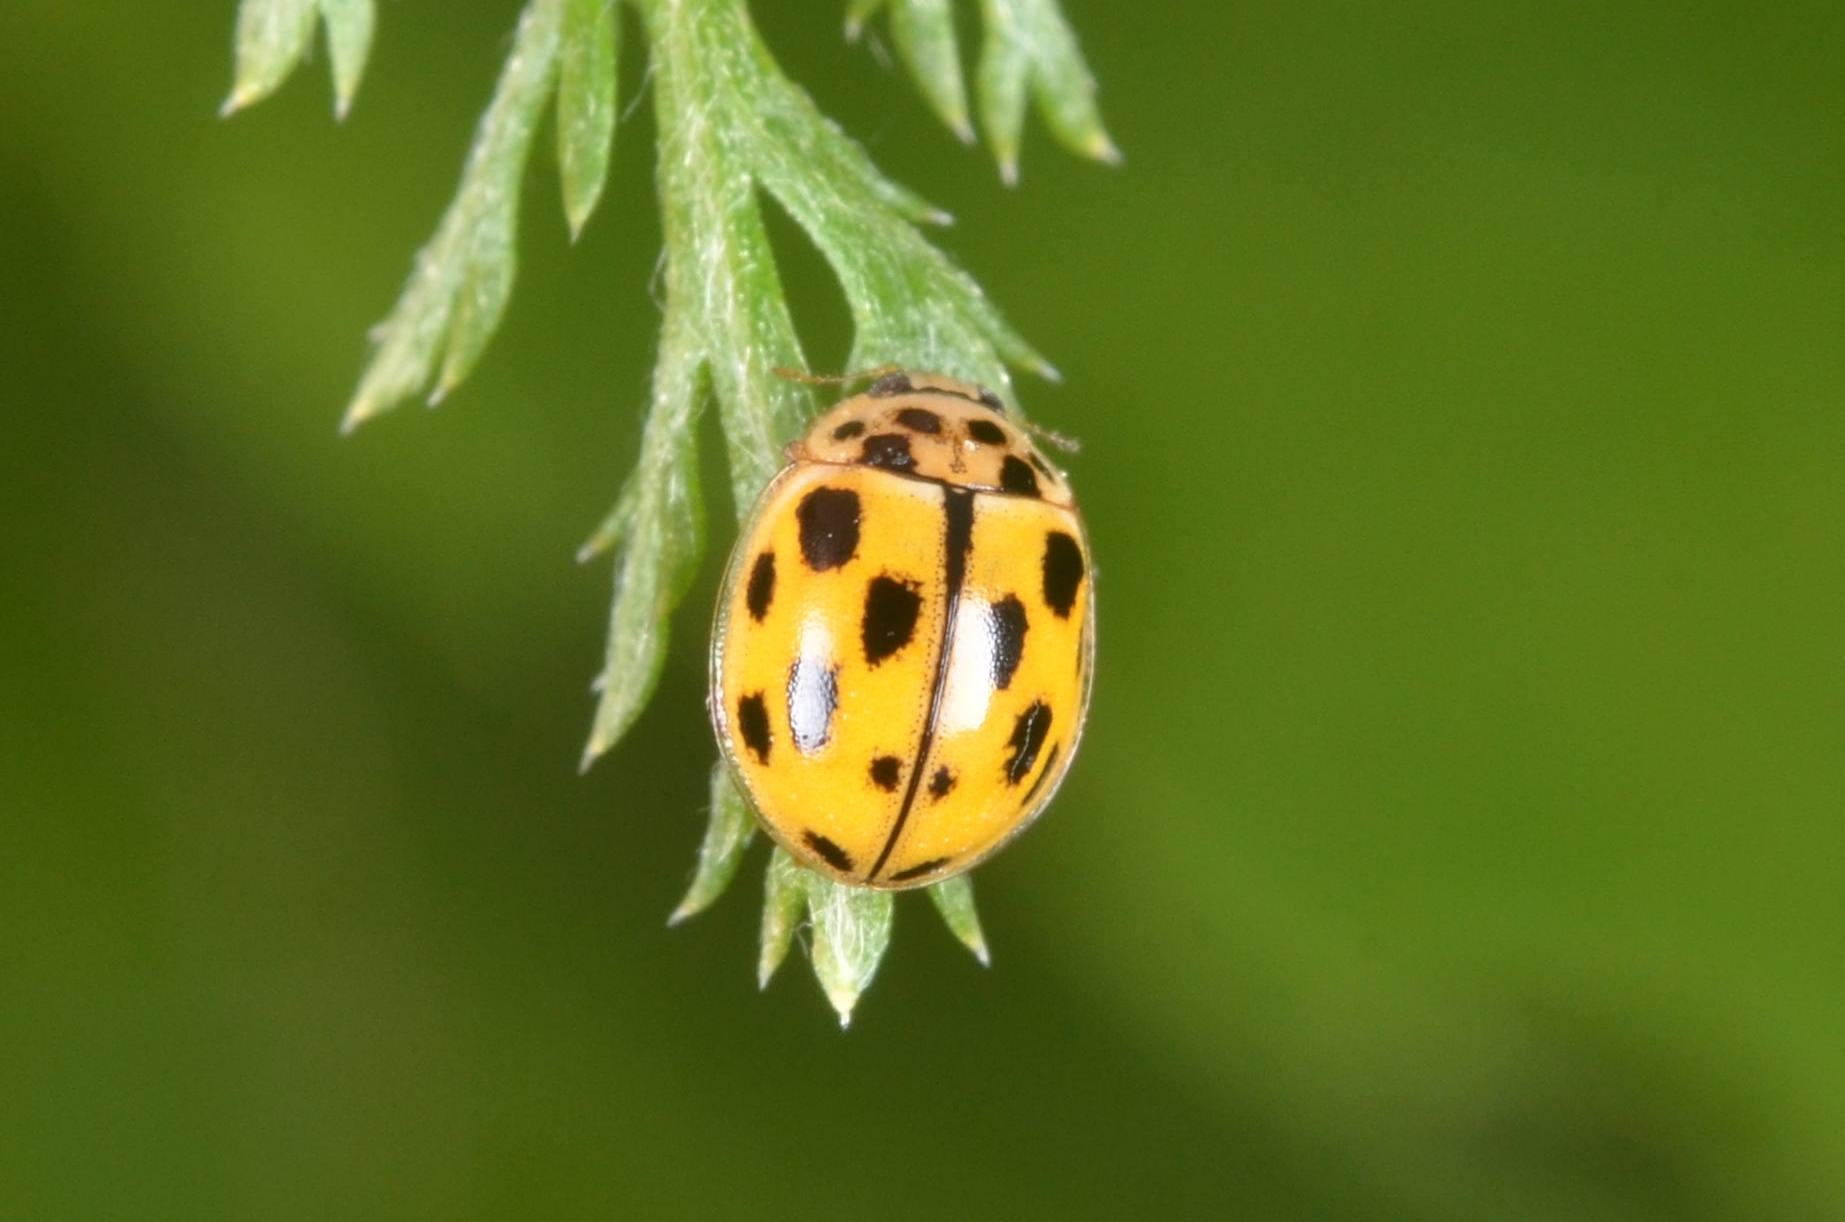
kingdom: Animalia
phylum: Arthropoda
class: Insecta
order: Coleoptera
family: Coccinellidae
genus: Propylaea
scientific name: Propylaea quatuordecimpunctata
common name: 14-spotted ladybird beetle
